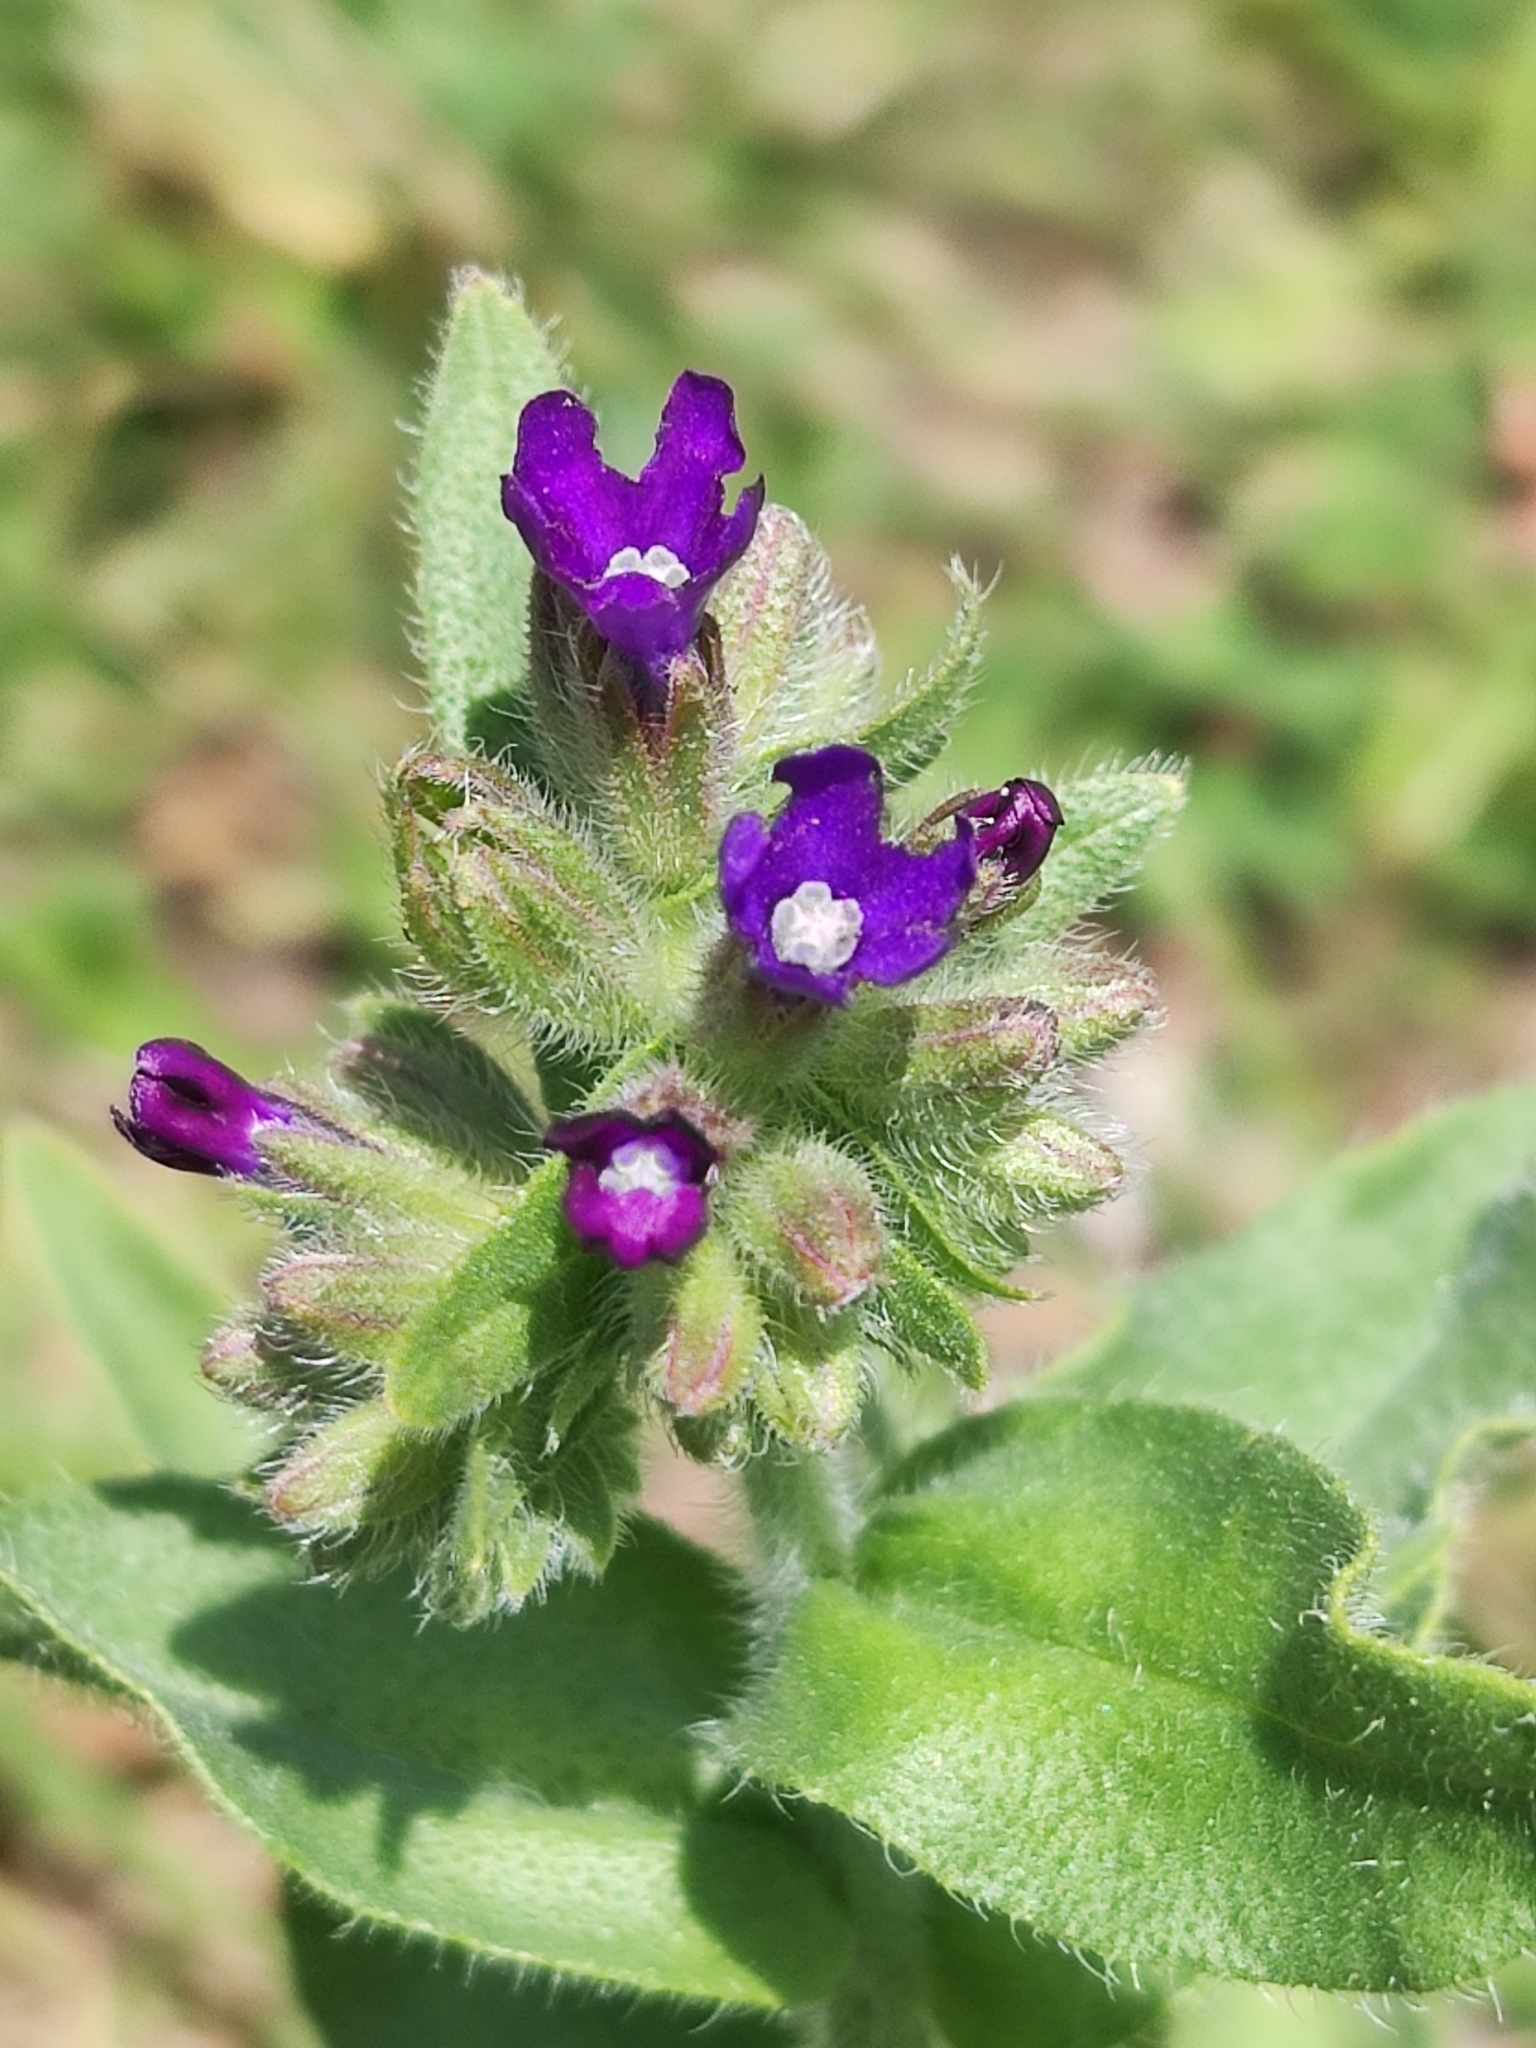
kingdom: Plantae
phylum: Tracheophyta
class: Magnoliopsida
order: Boraginales
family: Boraginaceae
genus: Anchusa
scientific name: Anchusa officinalis
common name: Alkanet
